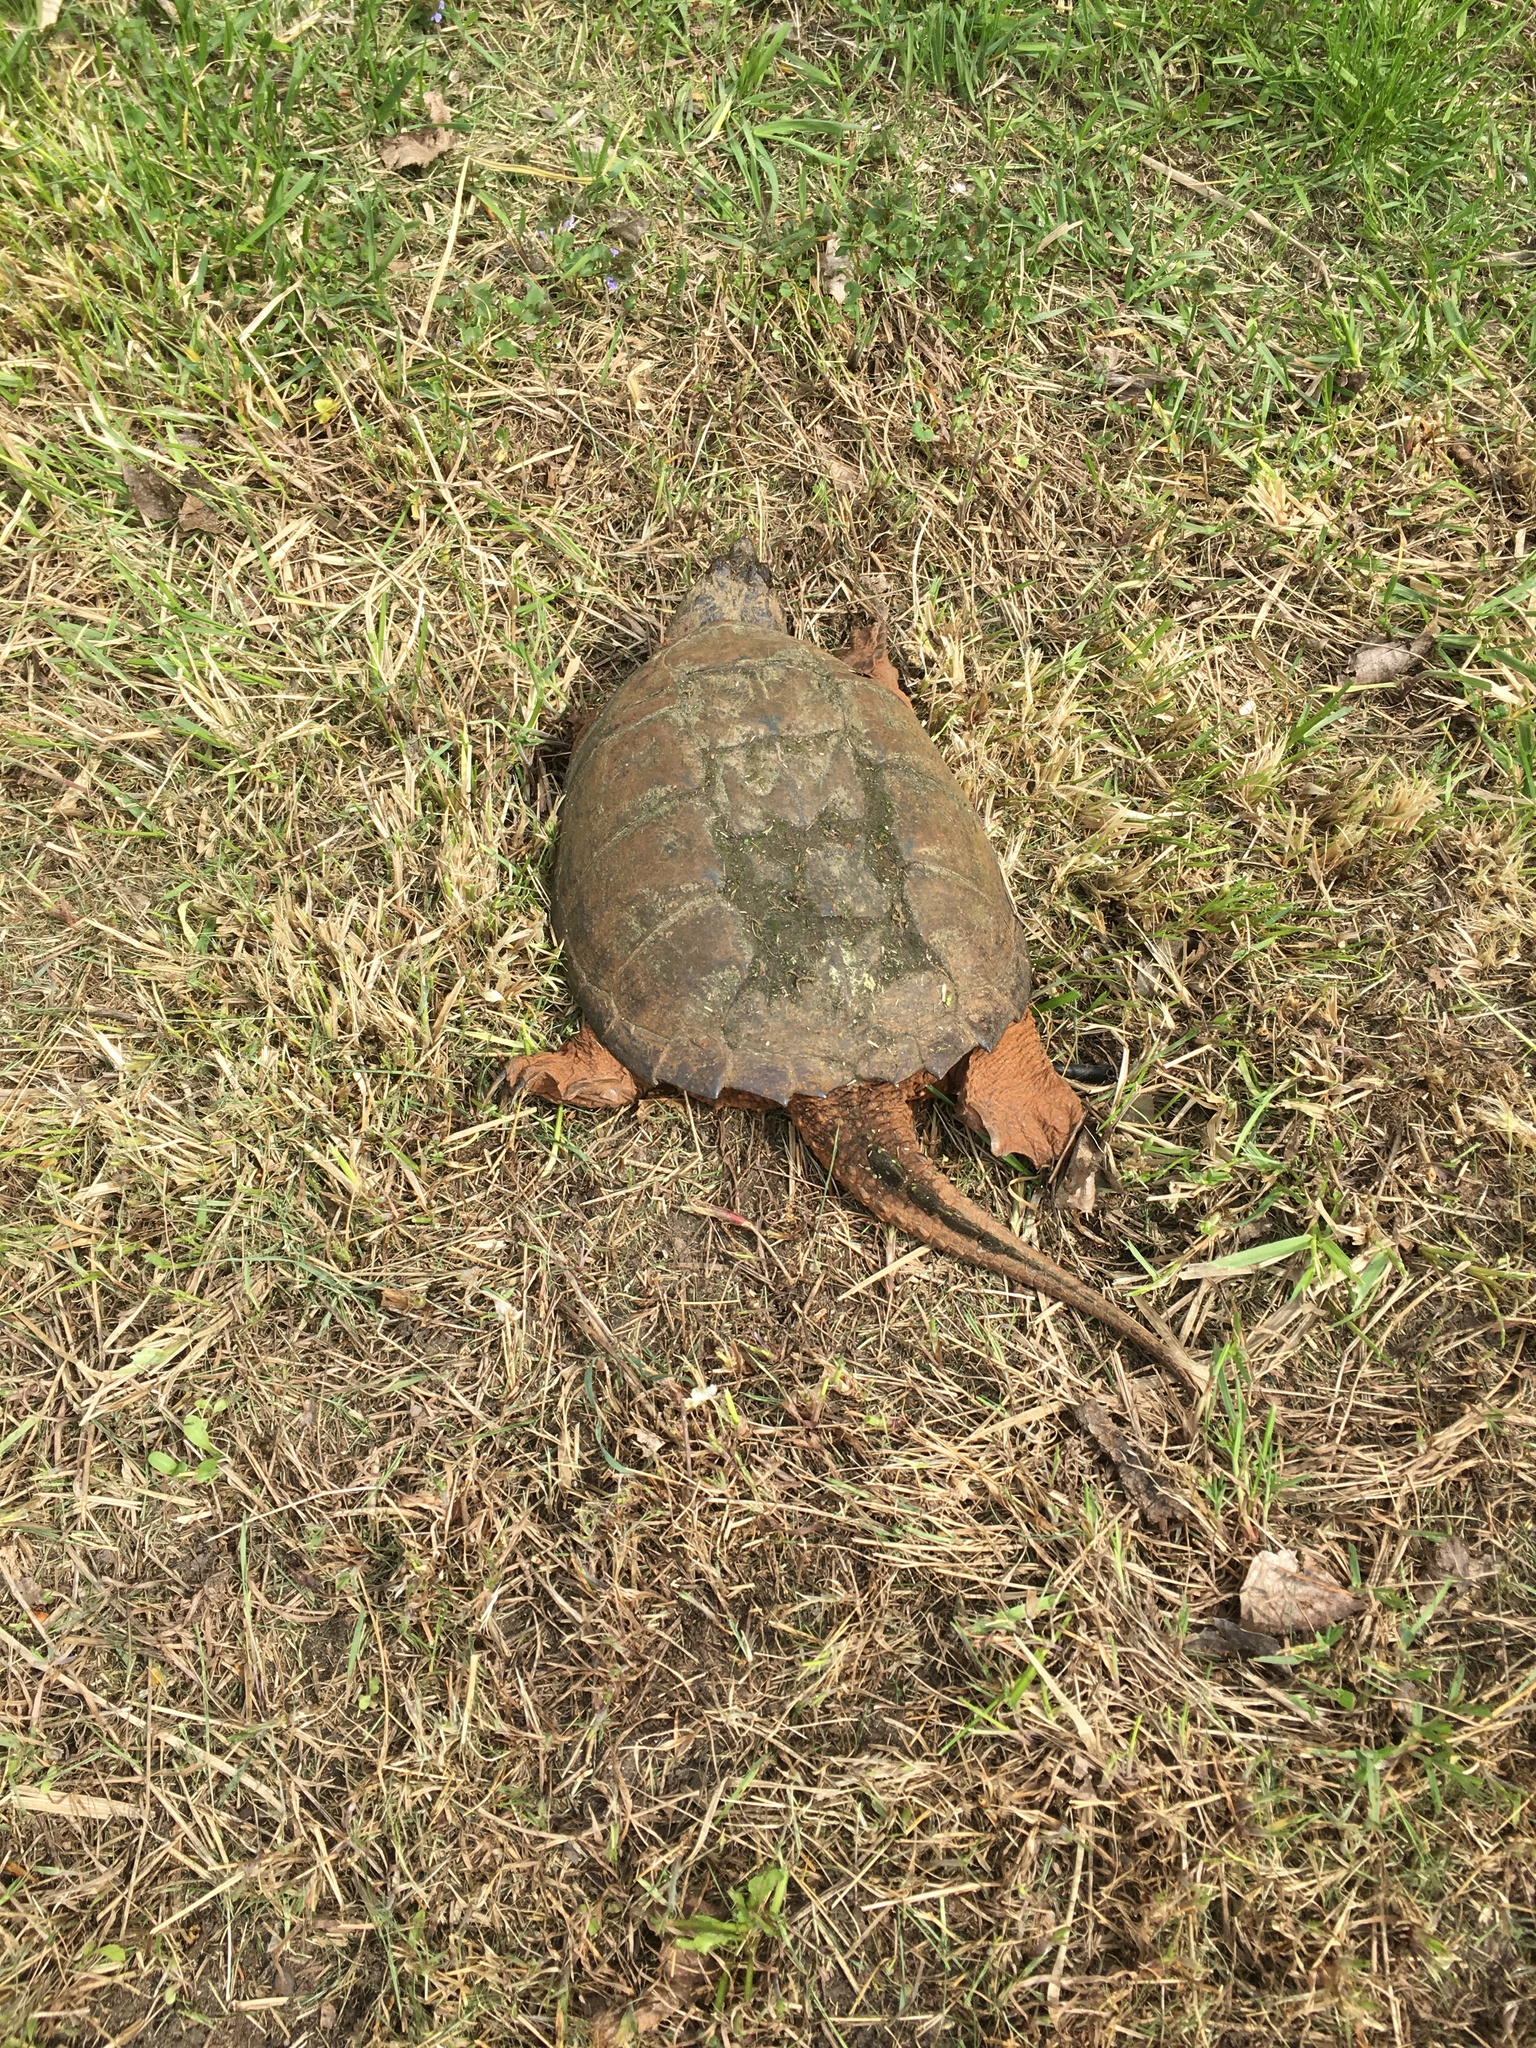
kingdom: Animalia
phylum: Chordata
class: Testudines
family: Chelydridae
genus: Chelydra
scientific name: Chelydra serpentina
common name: Common snapping turtle
